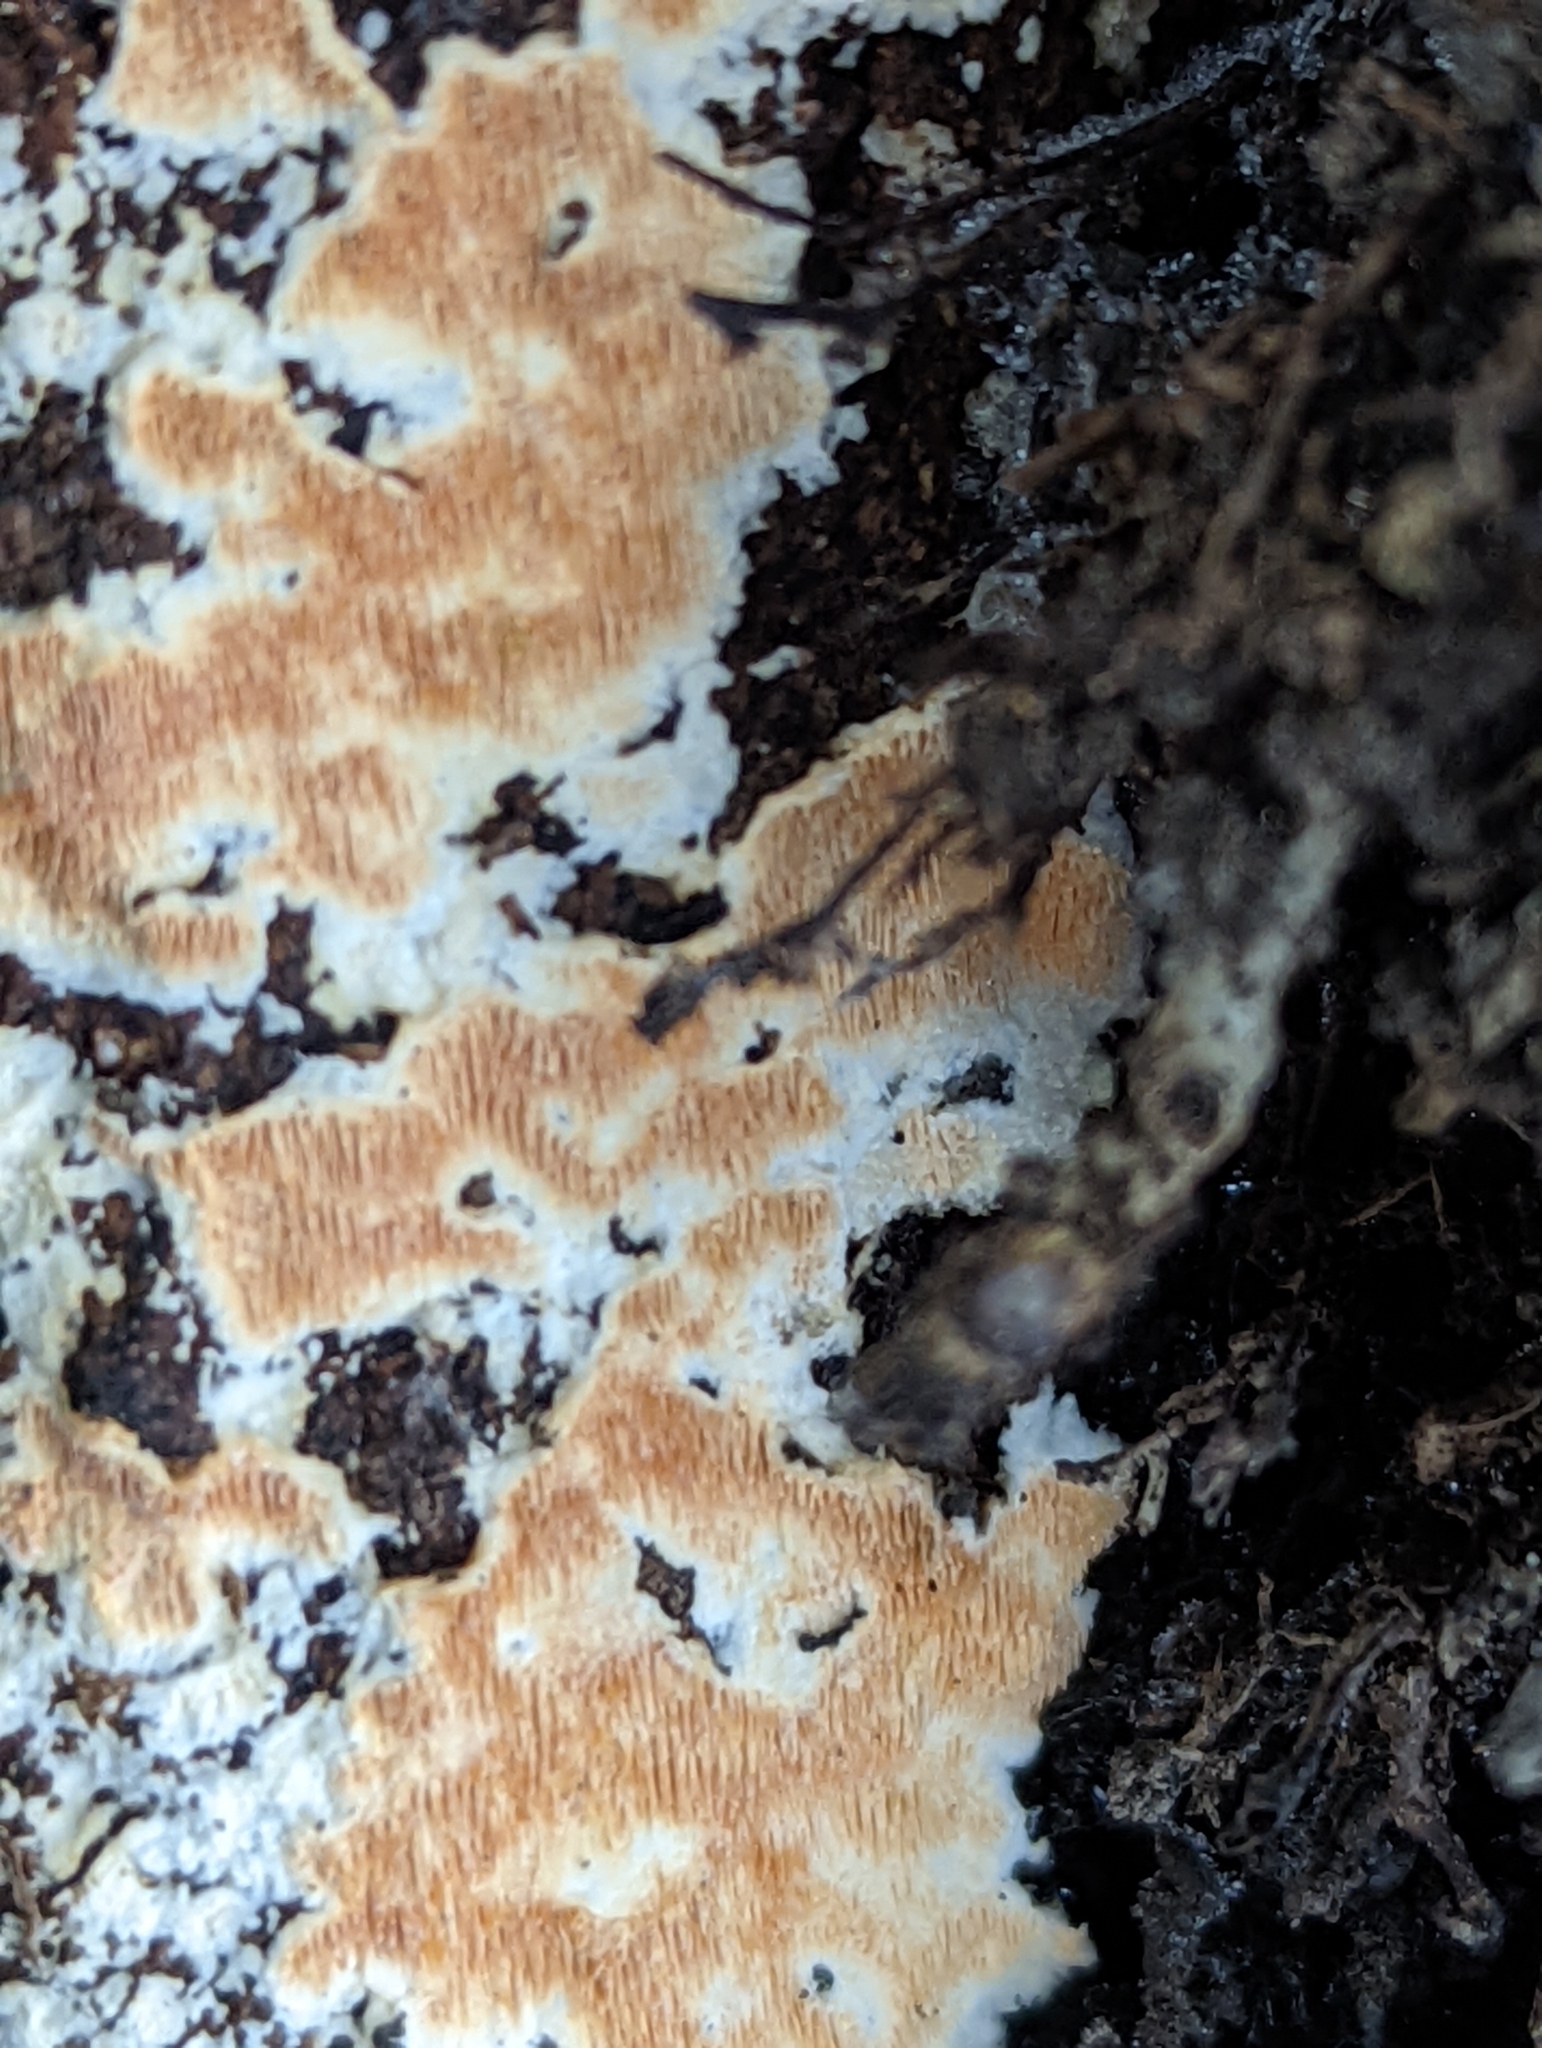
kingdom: Fungi
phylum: Basidiomycota
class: Agaricomycetes
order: Polyporales
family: Steccherinaceae
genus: Steccherinum
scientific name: Steccherinum ochraceum
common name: Ochre spreading tooth
